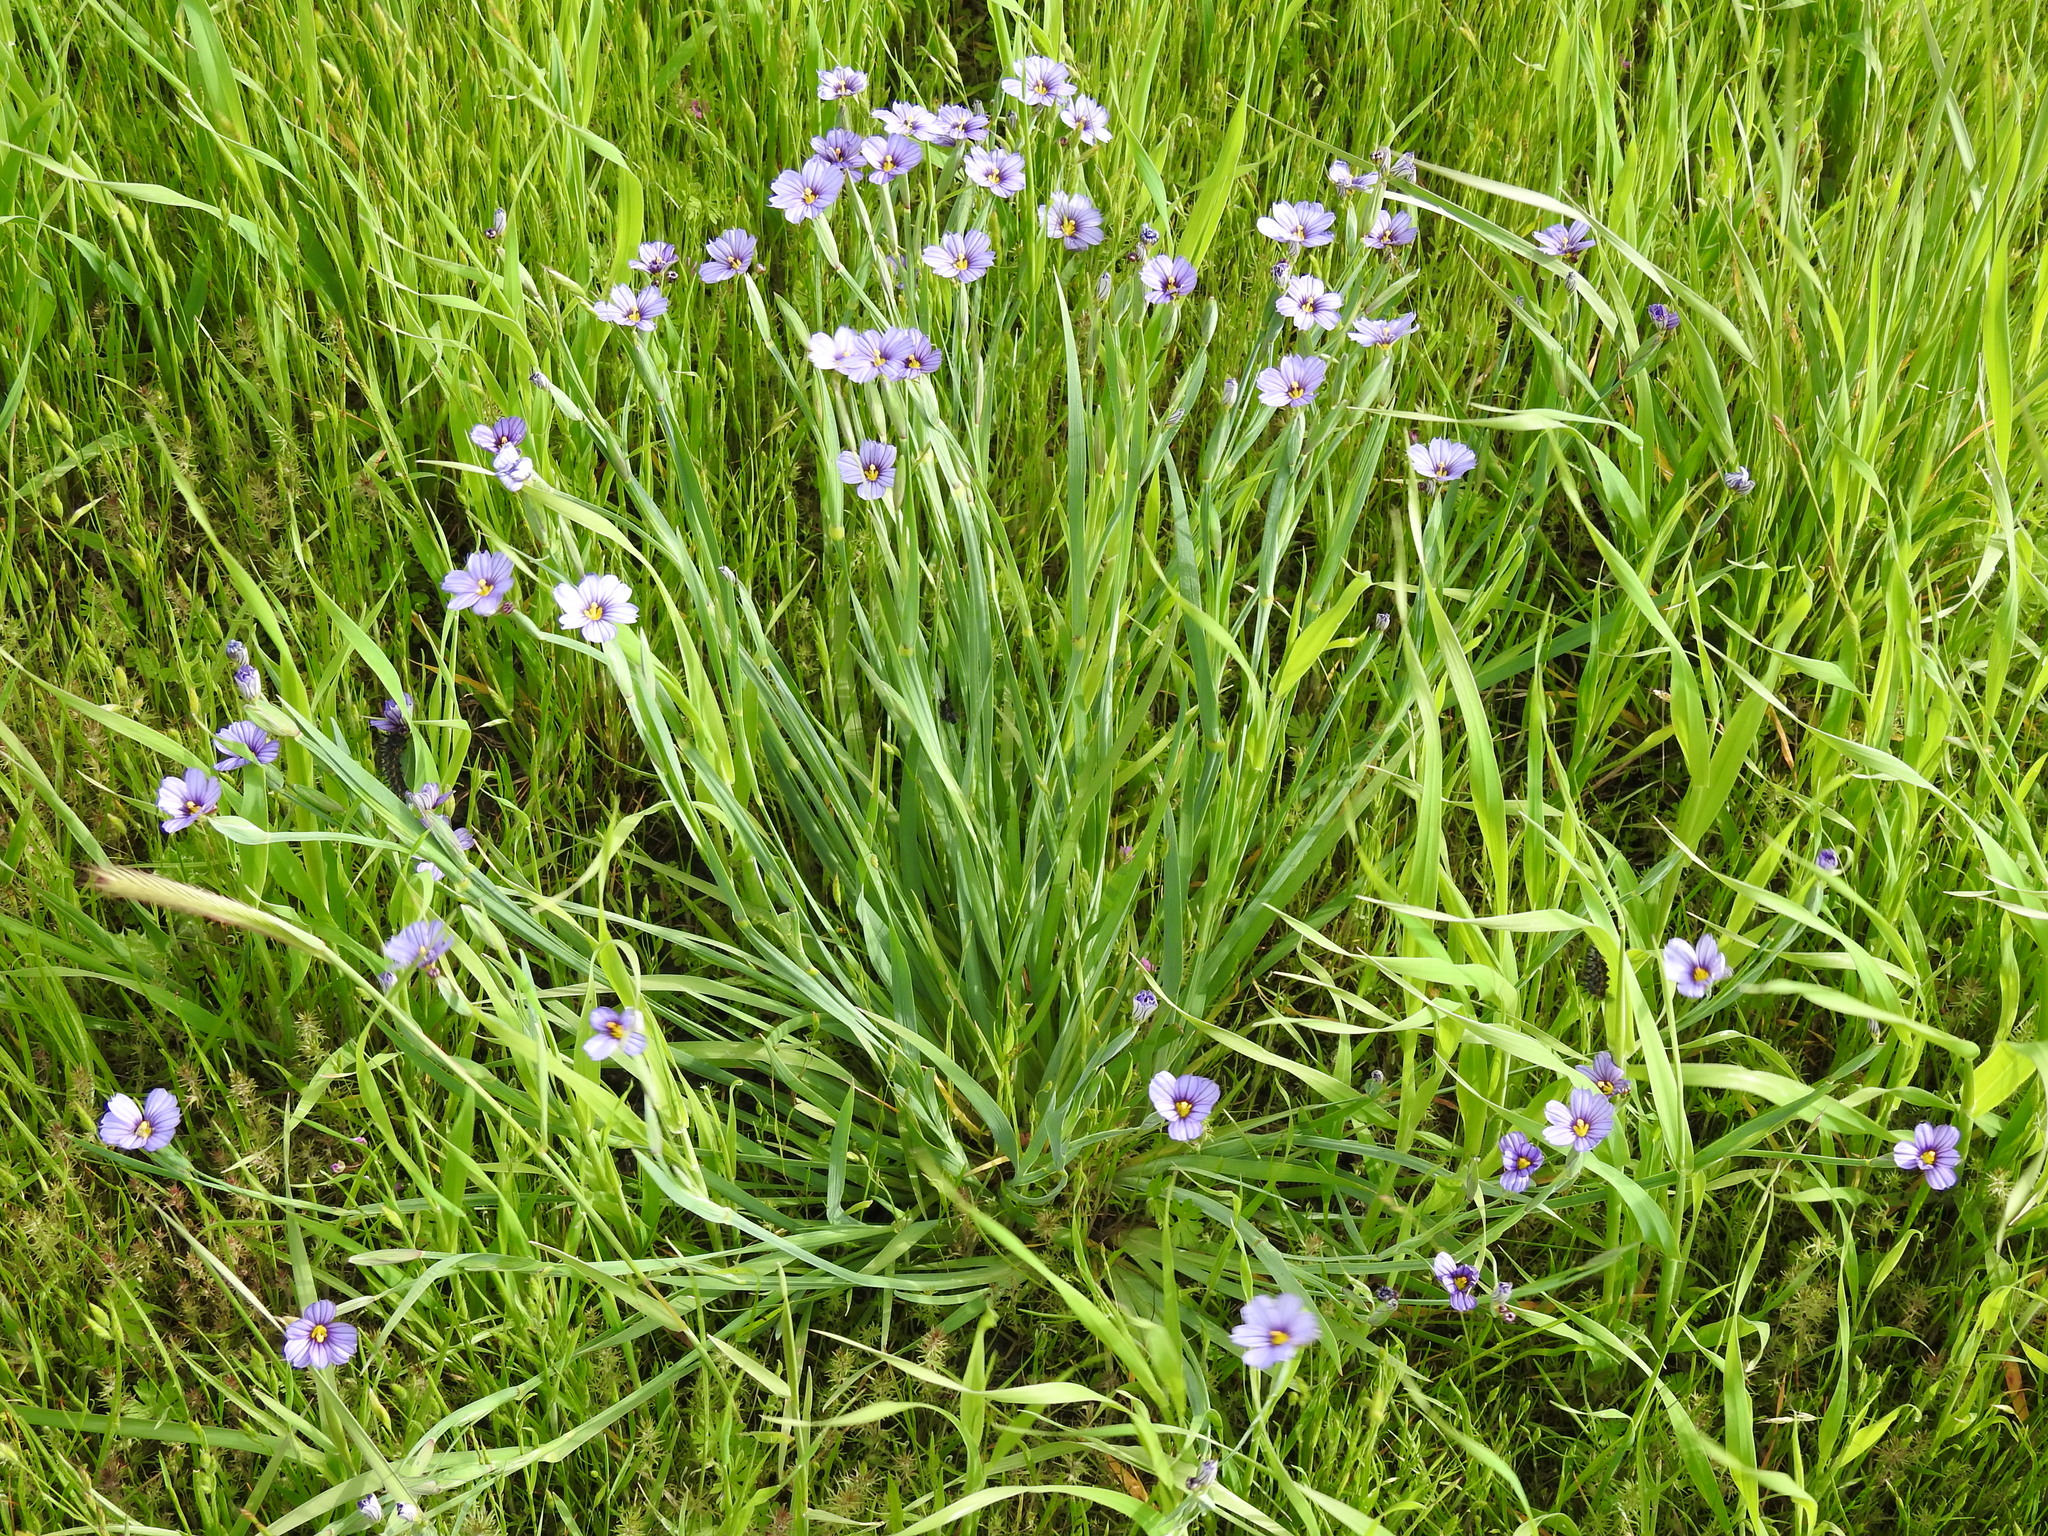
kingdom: Plantae
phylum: Tracheophyta
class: Liliopsida
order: Asparagales
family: Iridaceae
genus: Sisyrinchium
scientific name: Sisyrinchium bellum
